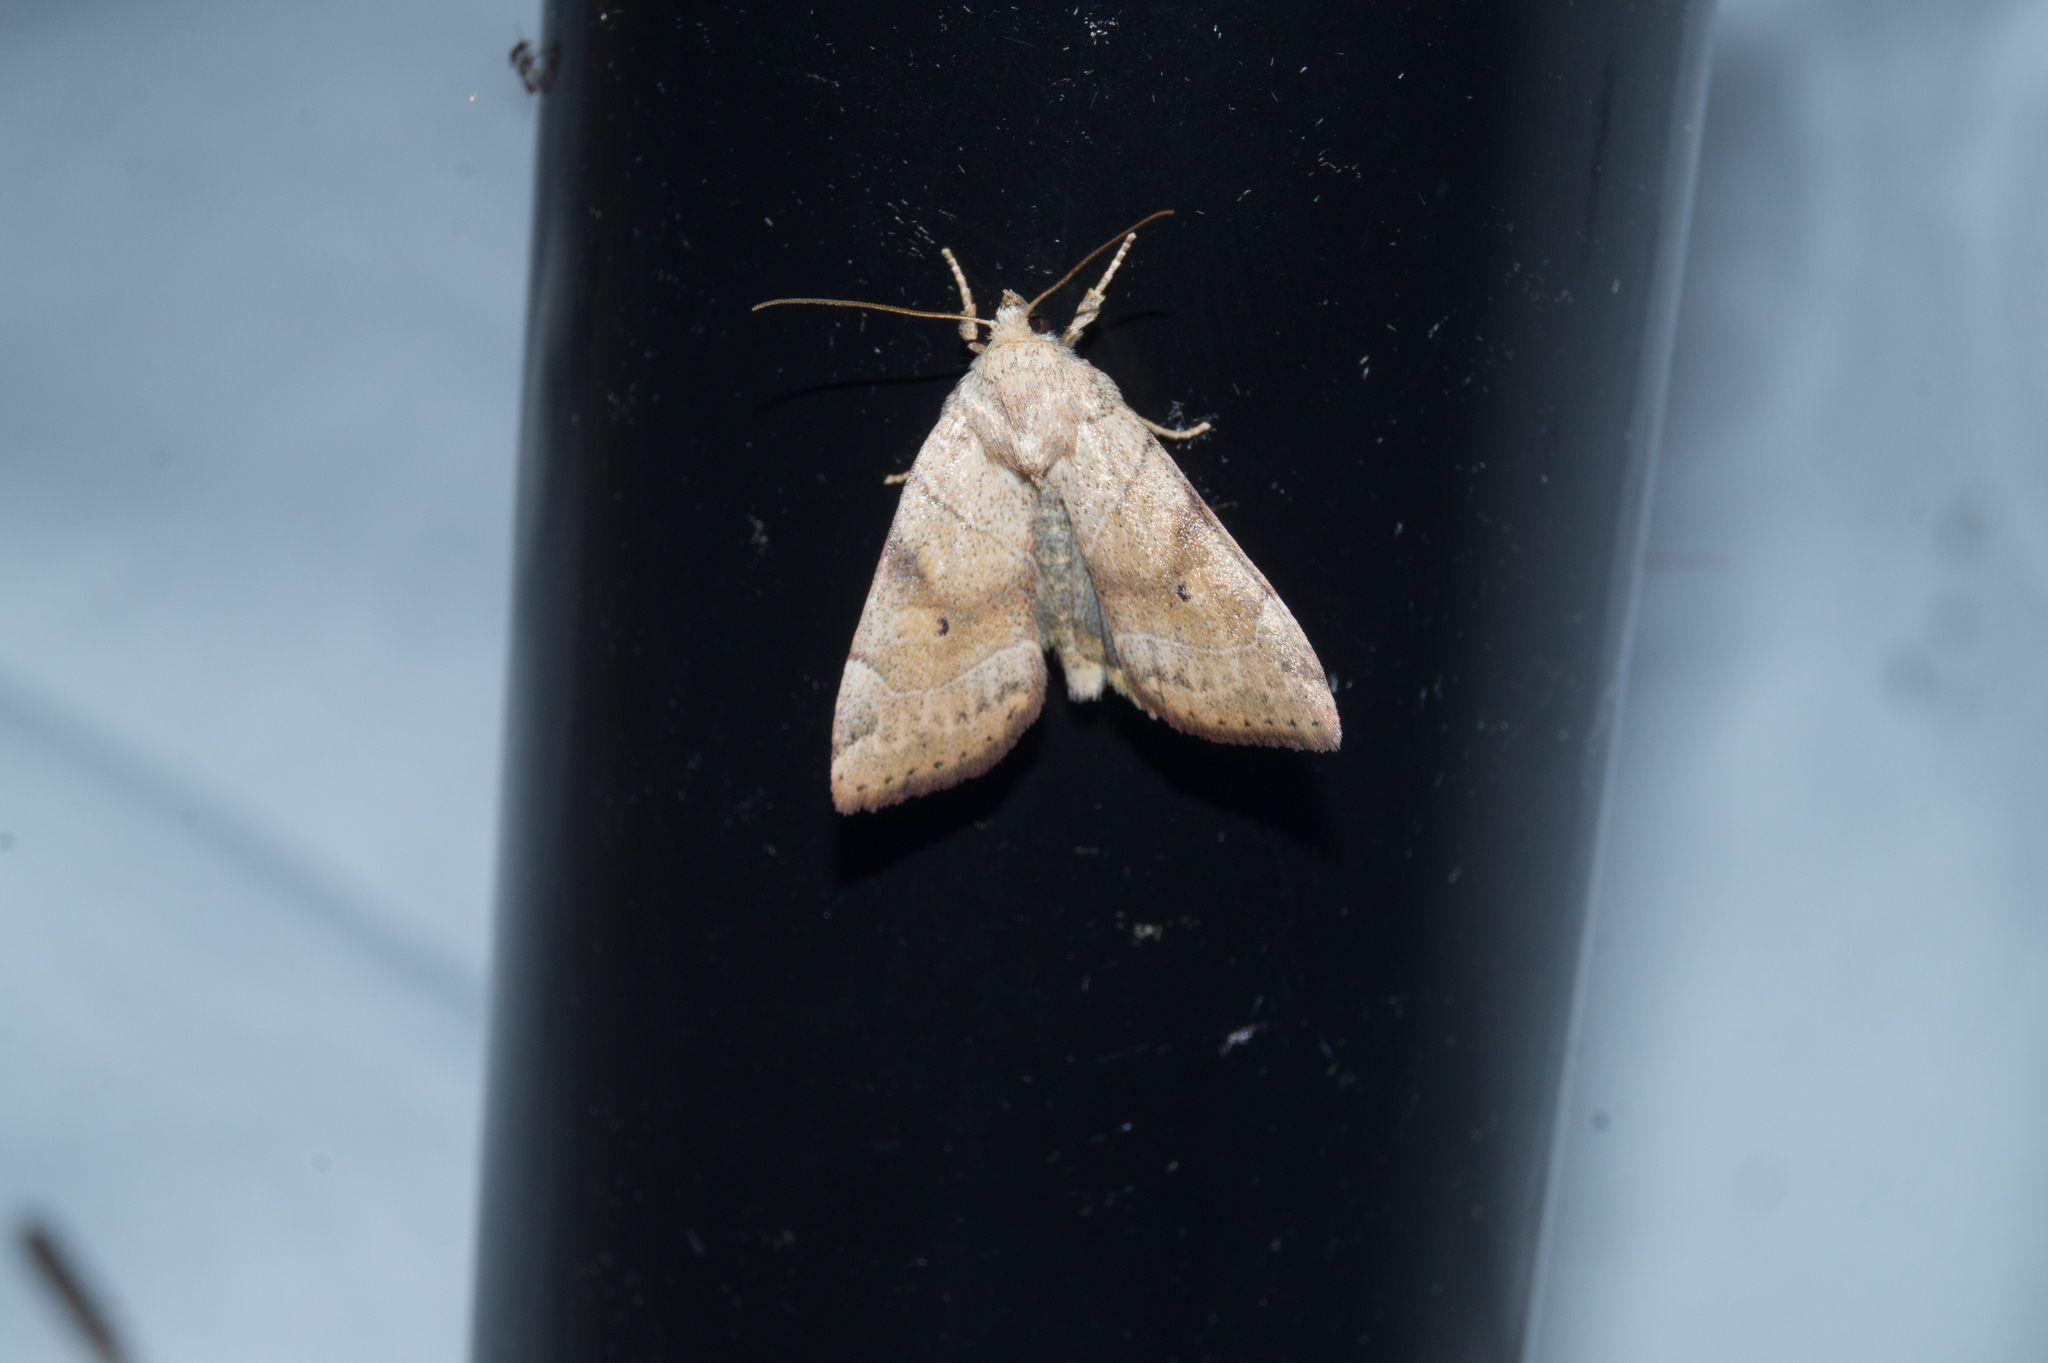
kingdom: Animalia
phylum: Arthropoda
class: Insecta
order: Lepidoptera
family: Noctuidae
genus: Cosmia
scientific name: Cosmia trapezina
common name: Dun-bar
